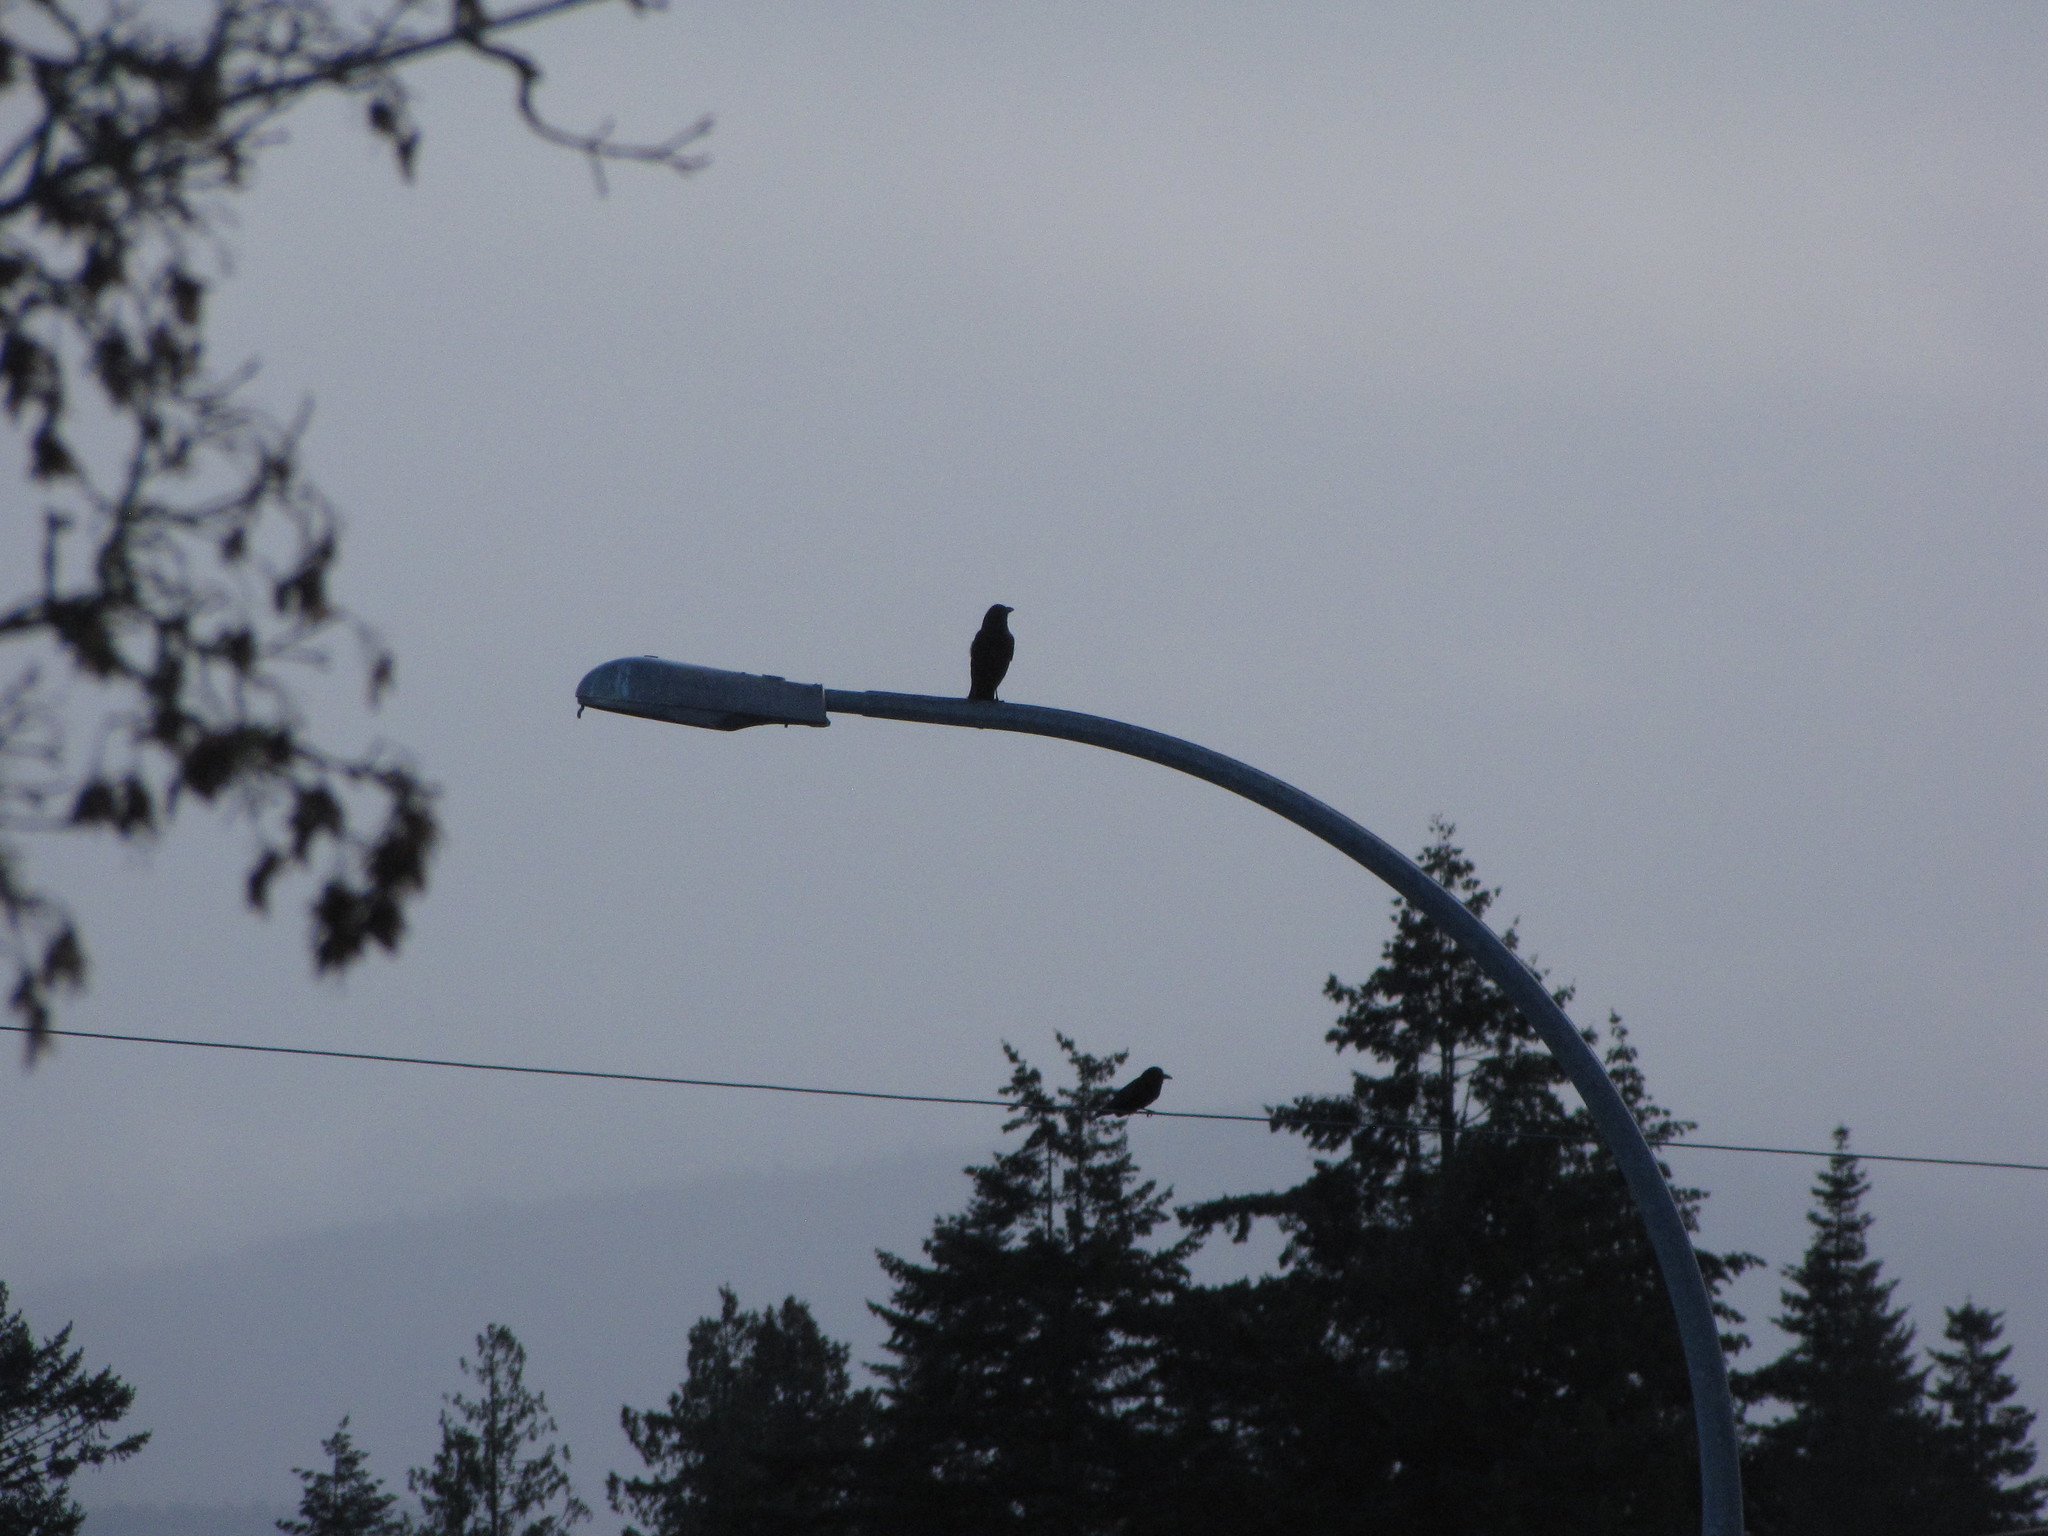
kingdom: Animalia
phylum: Chordata
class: Aves
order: Passeriformes
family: Corvidae
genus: Corvus
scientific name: Corvus
